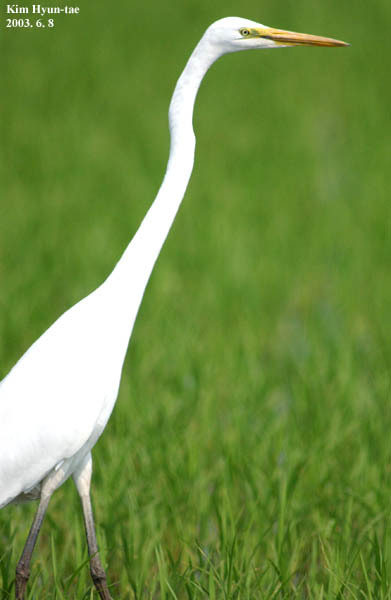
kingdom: Animalia
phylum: Chordata
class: Aves
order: Pelecaniformes
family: Ardeidae
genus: Ardea
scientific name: Ardea modesta
